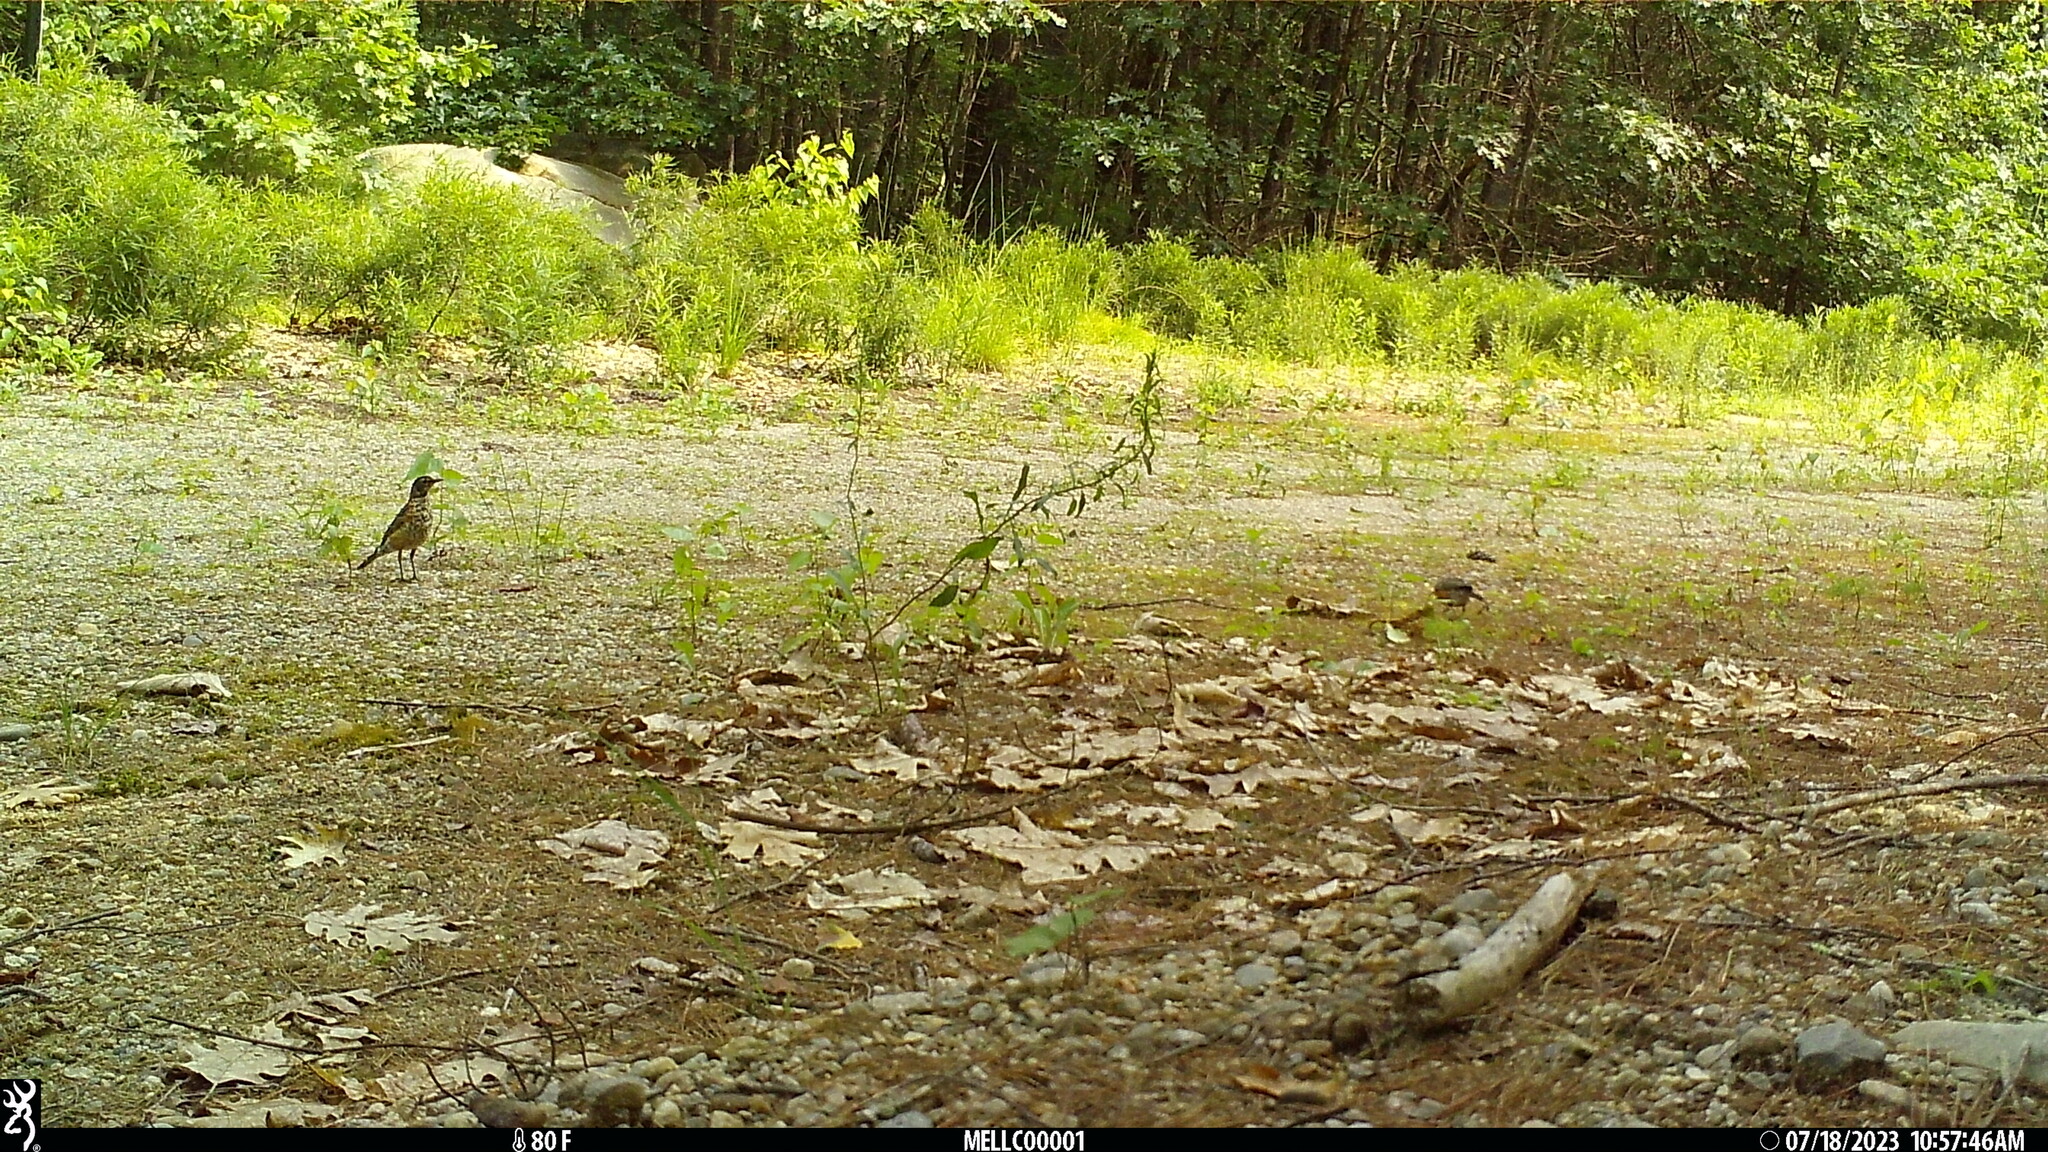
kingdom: Animalia
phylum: Chordata
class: Aves
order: Passeriformes
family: Turdidae
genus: Turdus
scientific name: Turdus migratorius
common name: American robin
